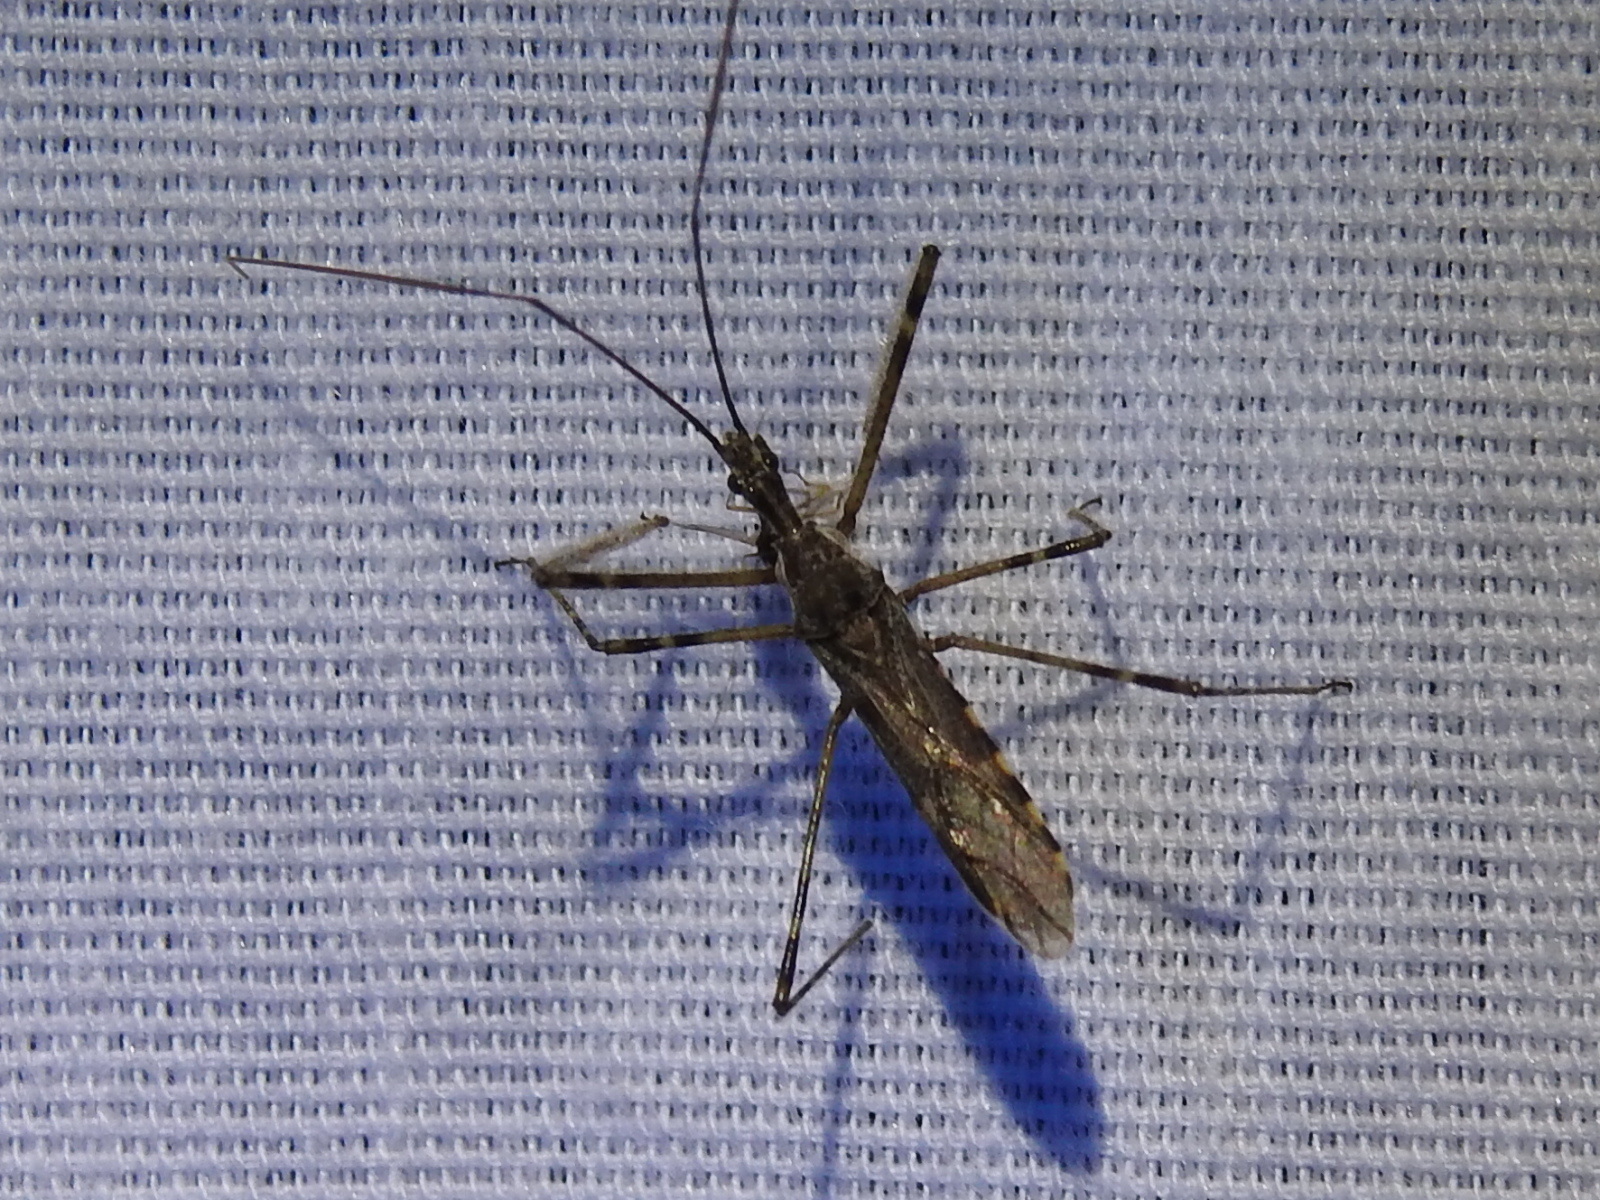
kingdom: Animalia
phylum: Arthropoda
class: Insecta
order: Hemiptera
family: Reduviidae
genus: Zelus
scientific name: Zelus tetracanthus
